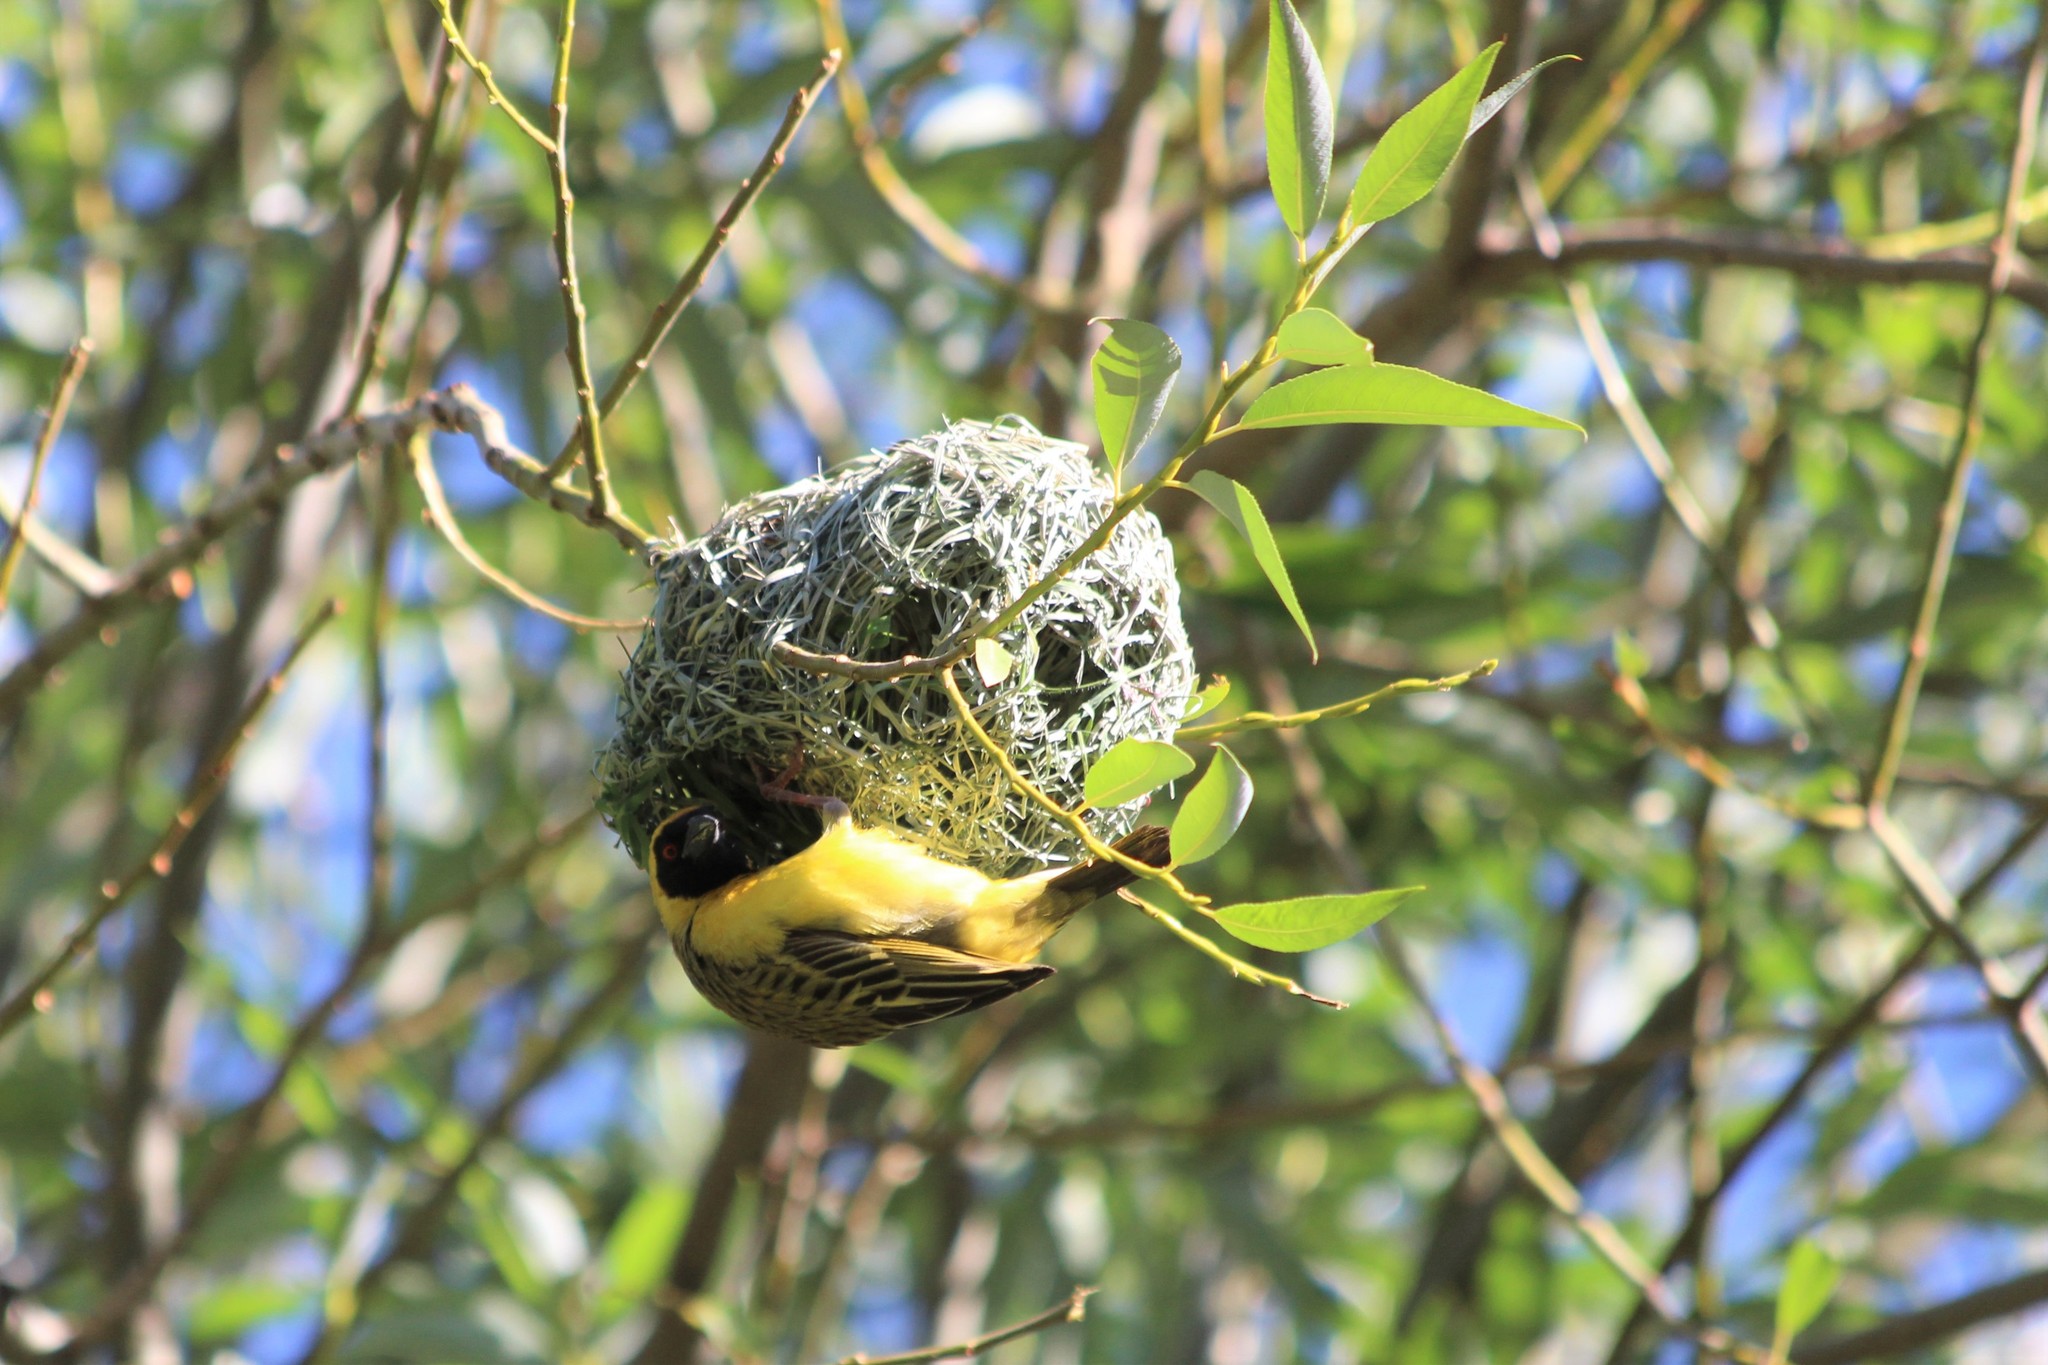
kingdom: Animalia
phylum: Chordata
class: Aves
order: Passeriformes
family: Ploceidae
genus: Ploceus
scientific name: Ploceus velatus
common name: Southern masked weaver
